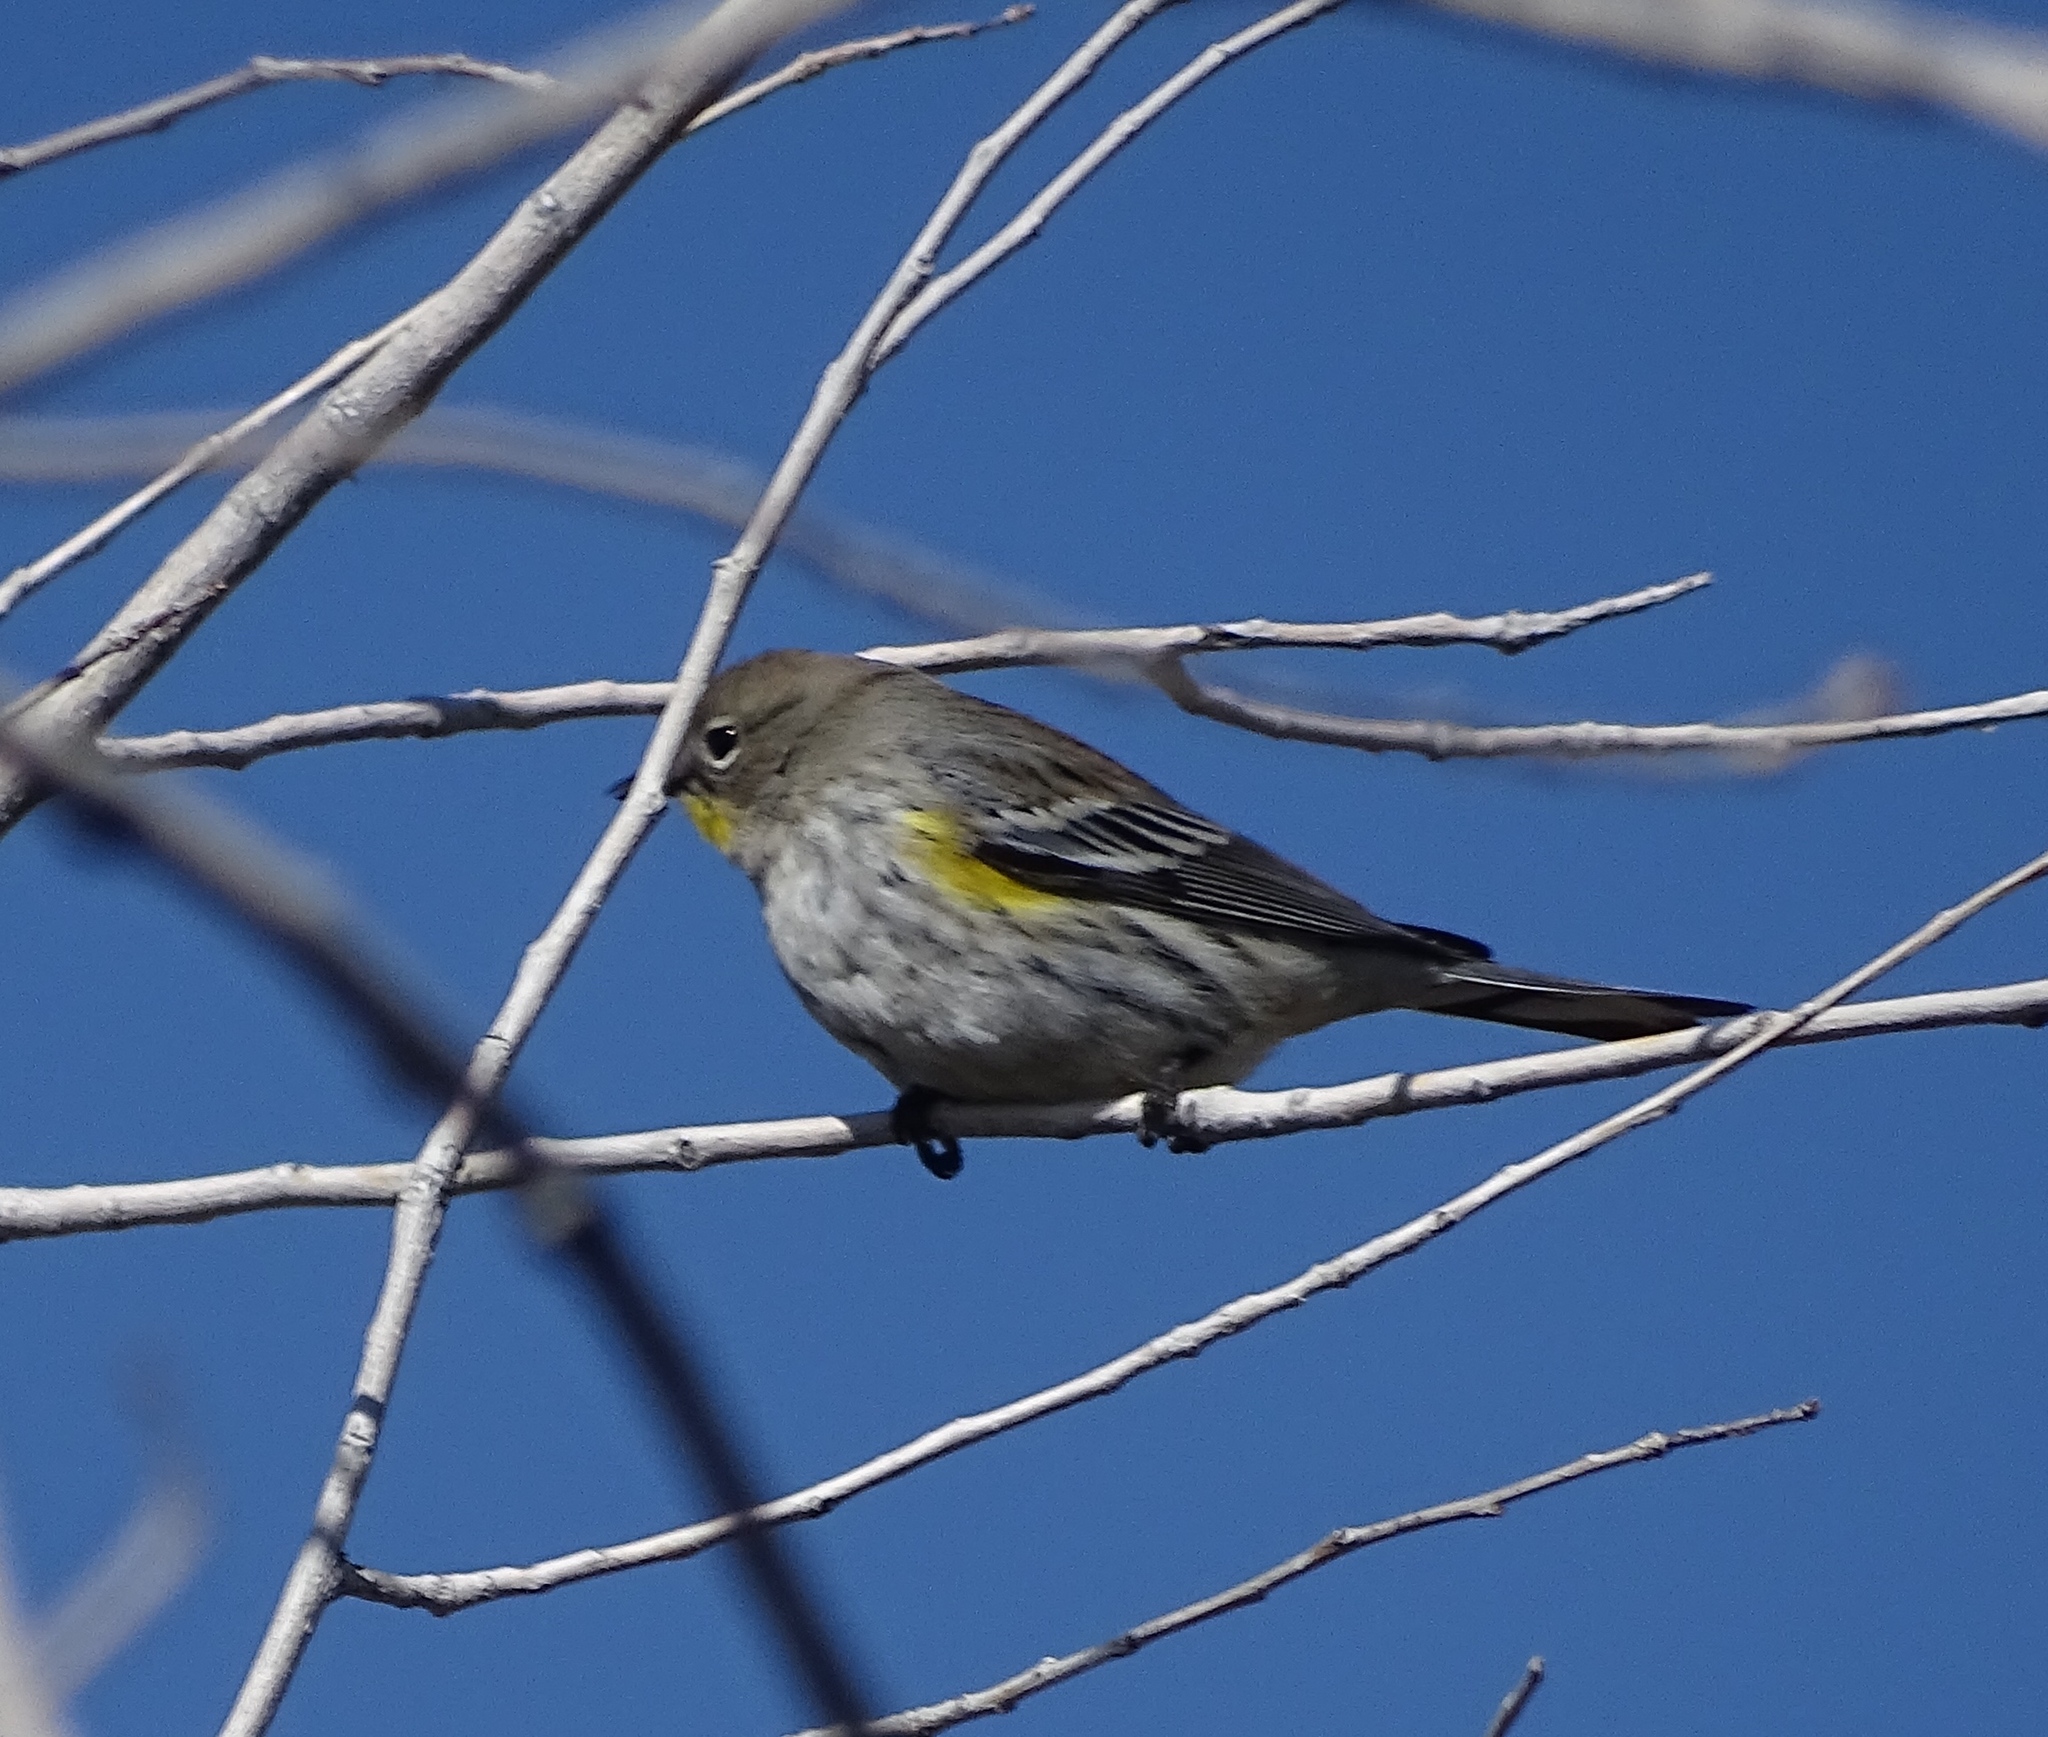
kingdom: Animalia
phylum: Chordata
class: Aves
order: Passeriformes
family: Parulidae
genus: Setophaga
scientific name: Setophaga auduboni
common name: Audubon's warbler
